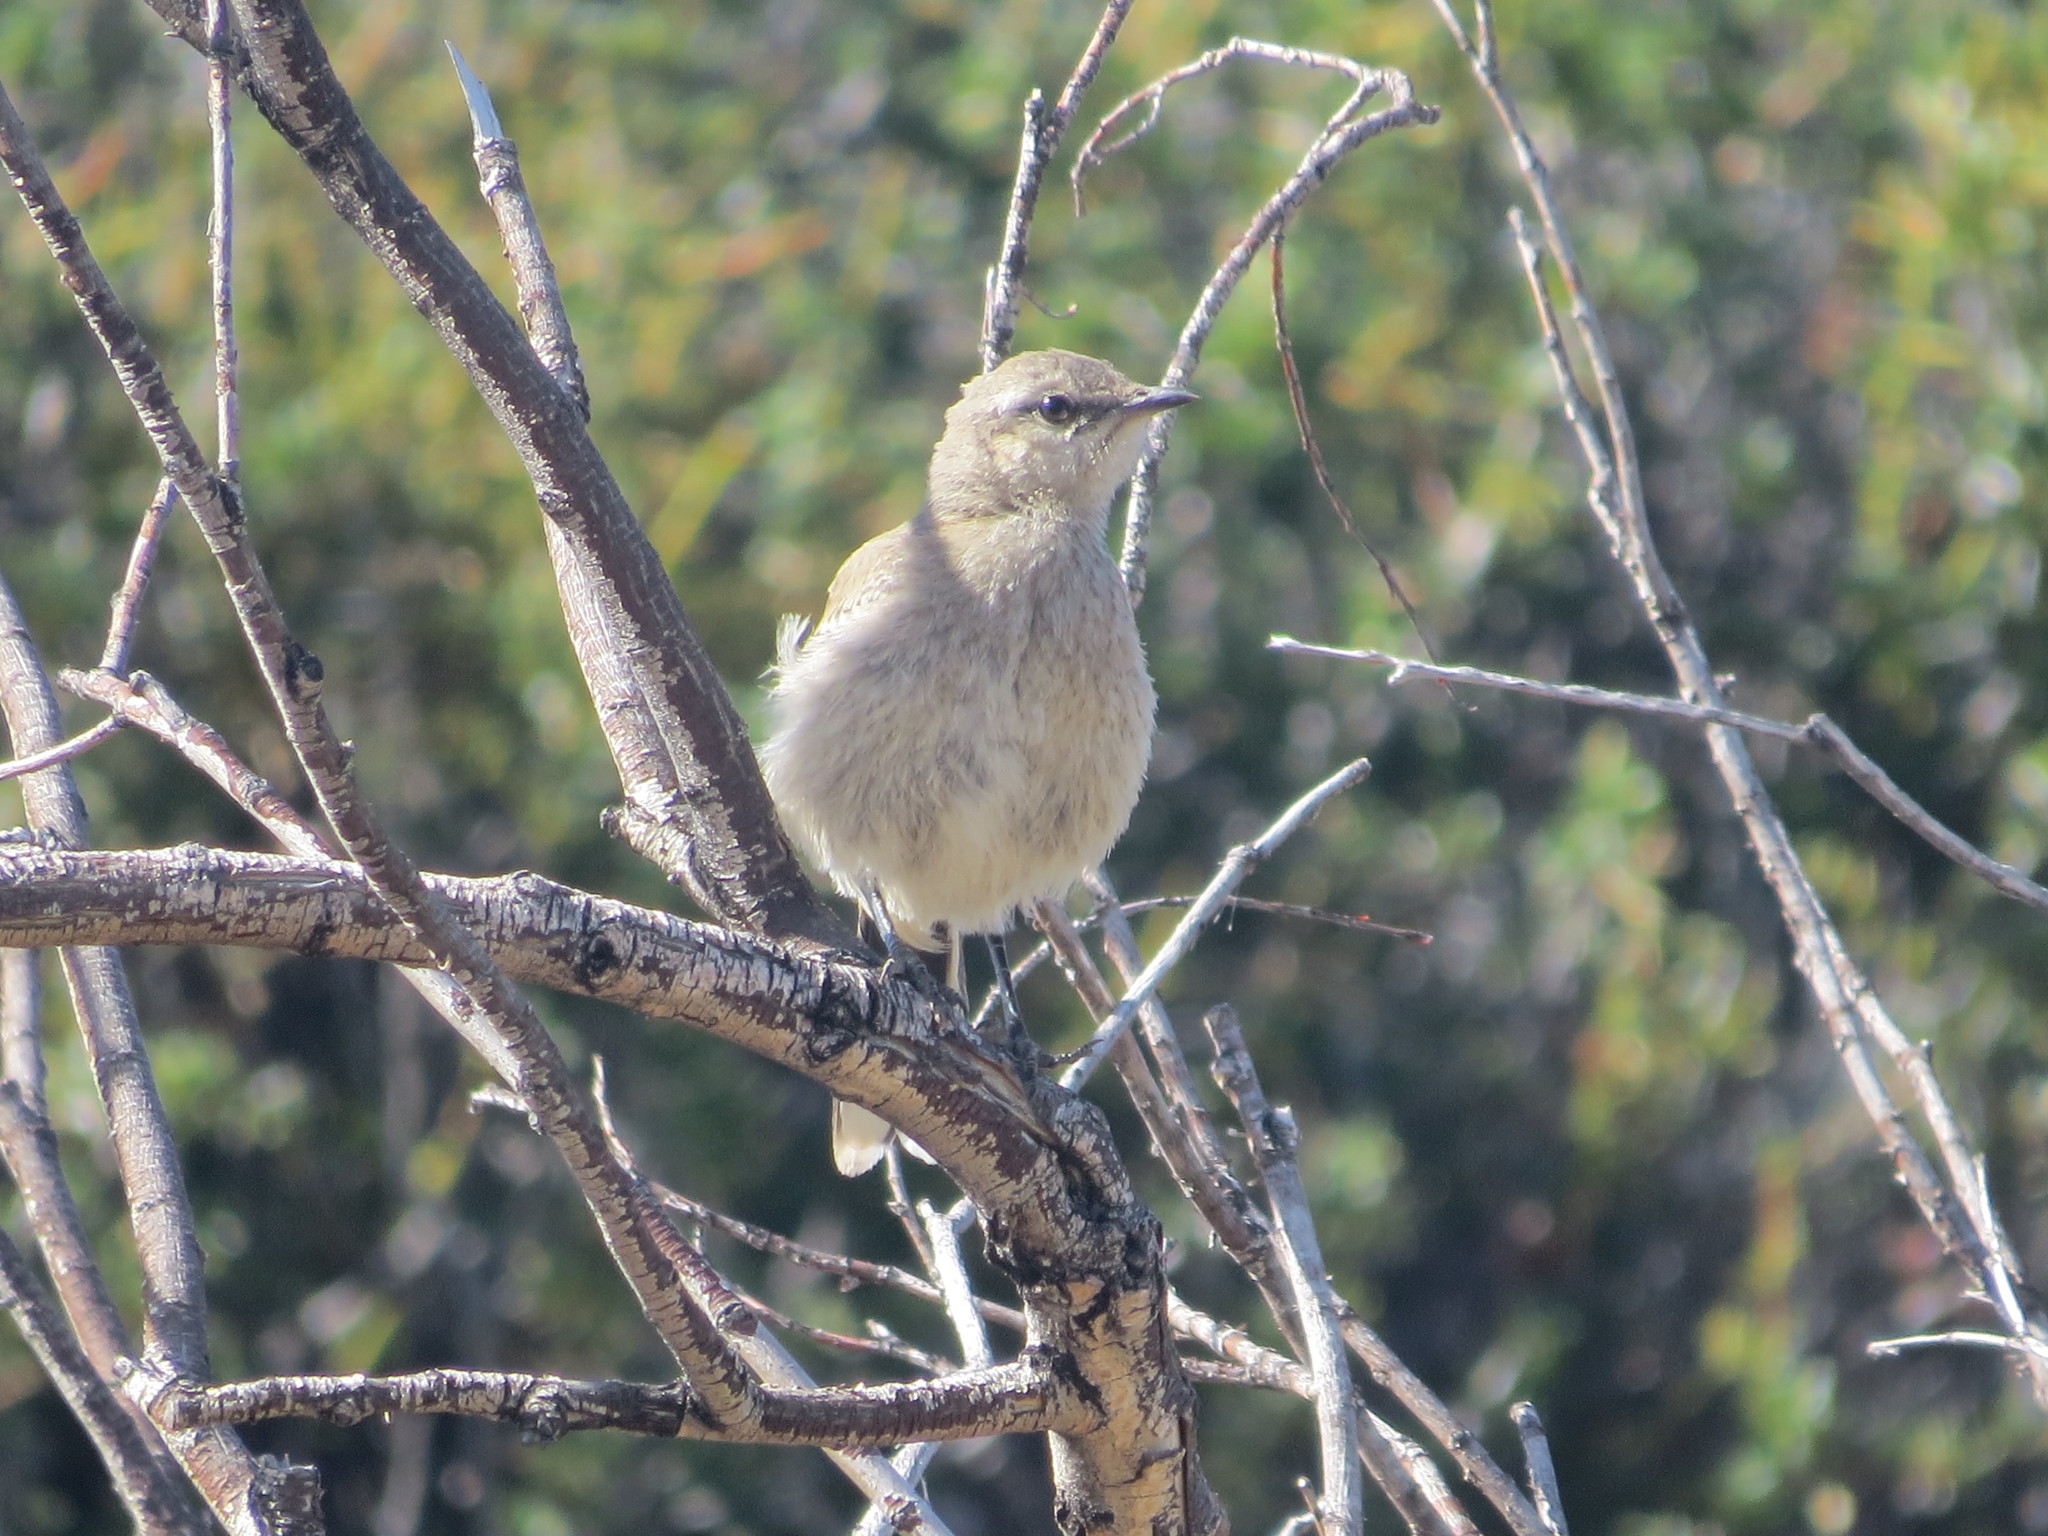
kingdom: Animalia
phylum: Chordata
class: Aves
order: Passeriformes
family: Mimidae
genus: Mimus
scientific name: Mimus patagonicus
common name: Patagonian mockingbird
